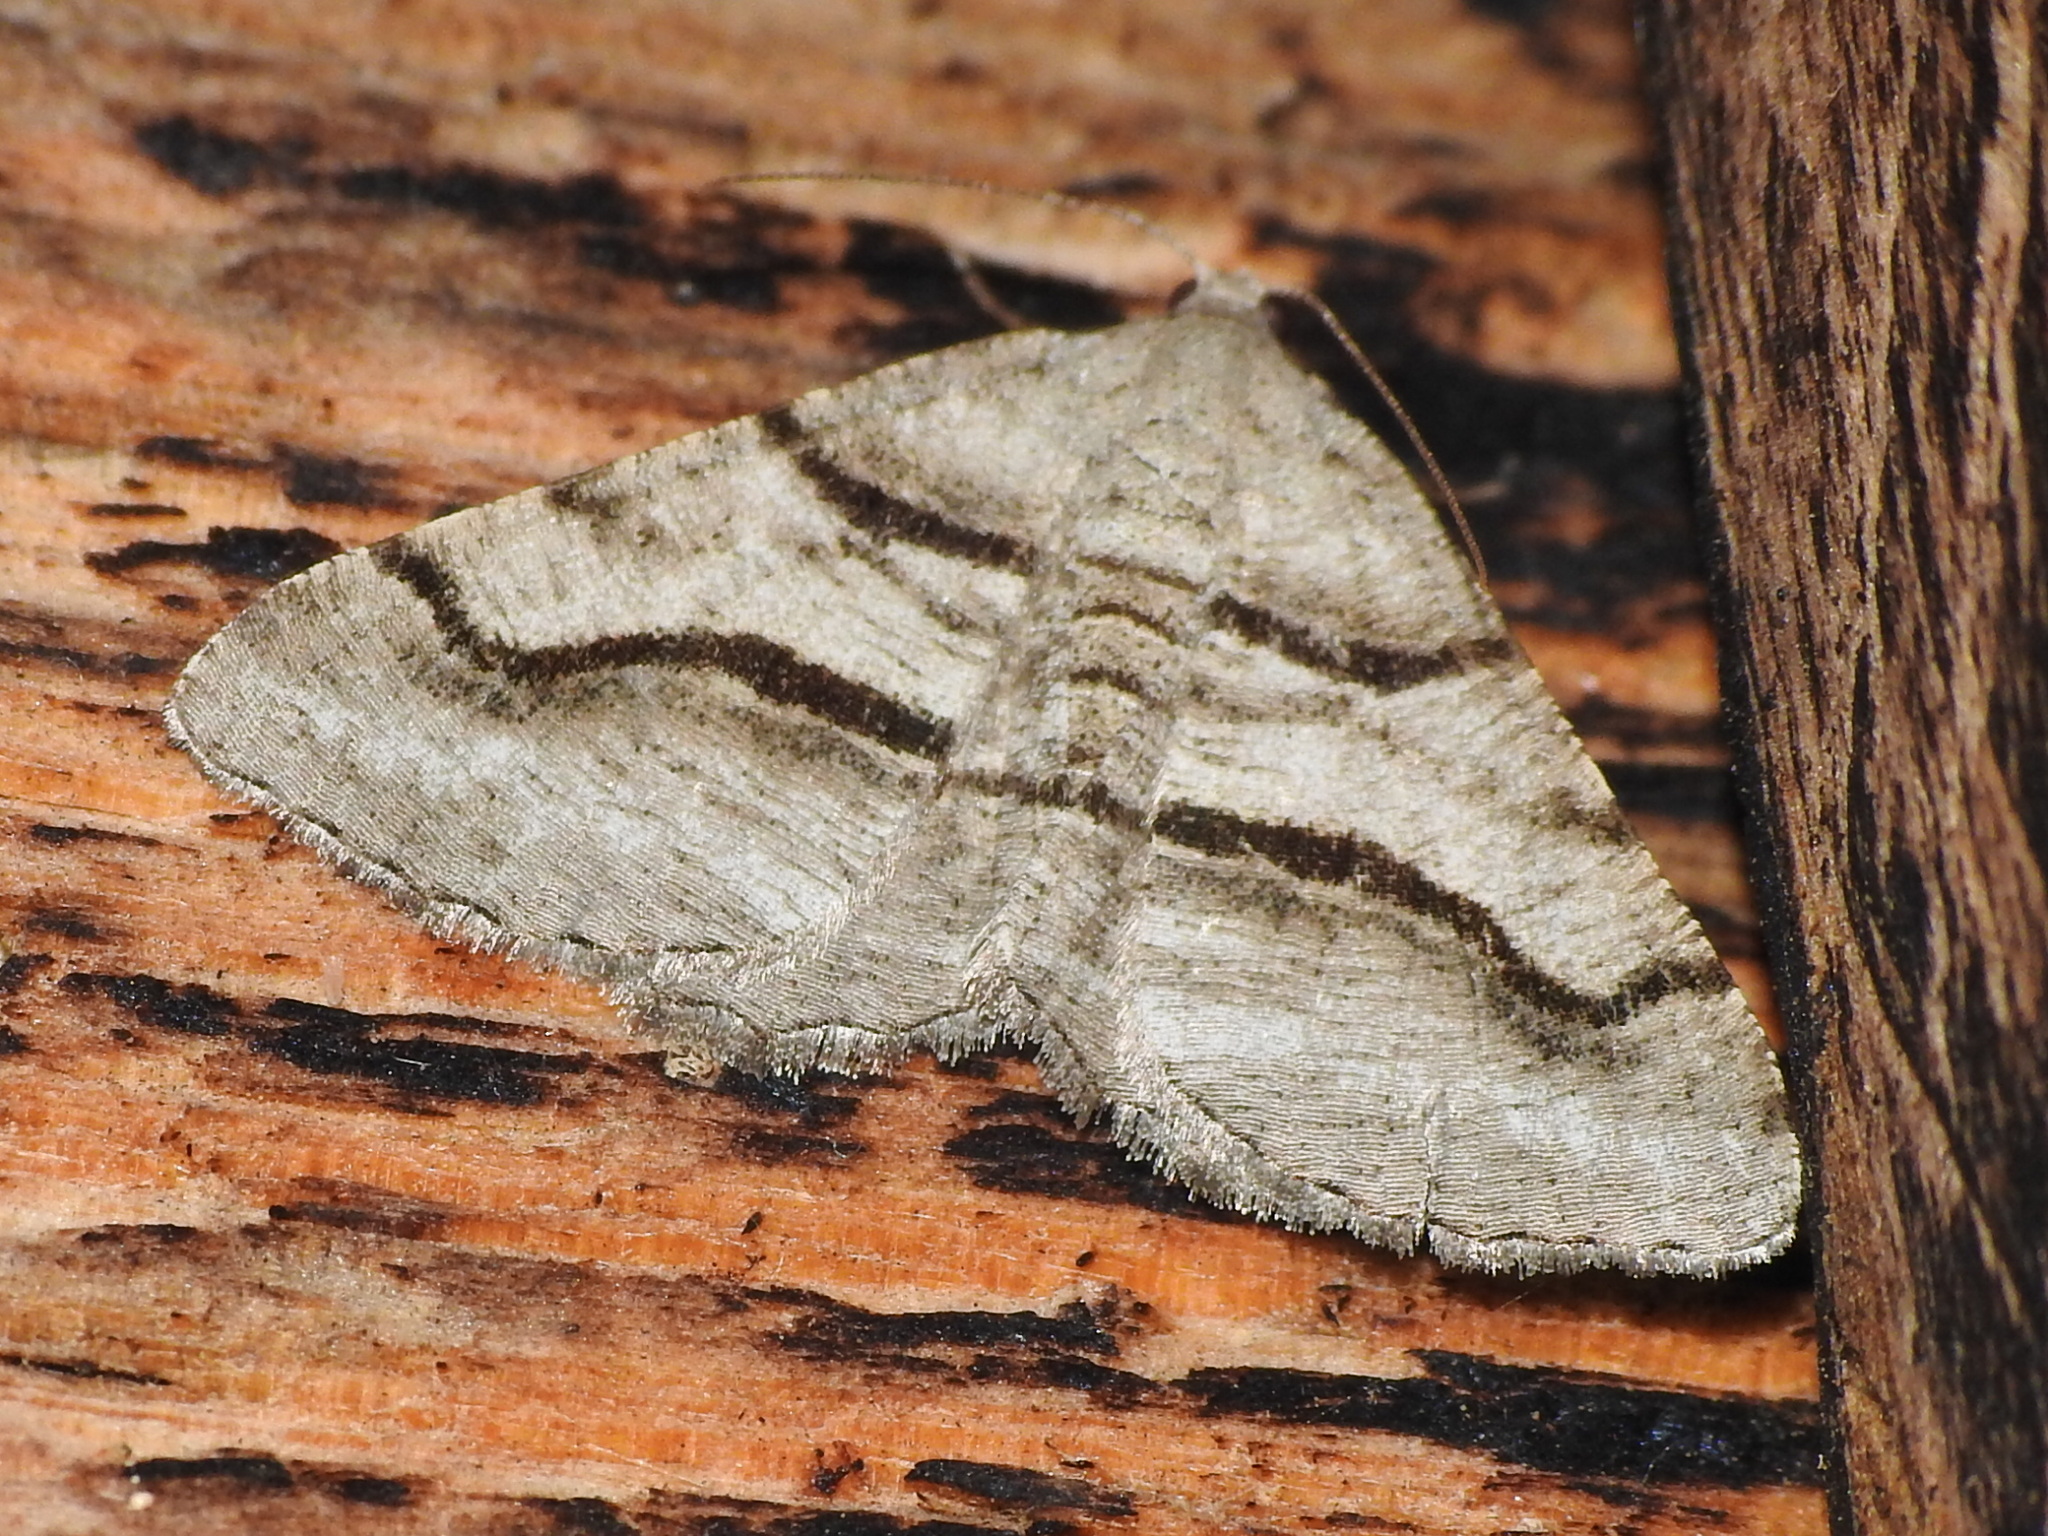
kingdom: Animalia
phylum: Arthropoda
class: Insecta
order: Lepidoptera
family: Geometridae
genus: Digrammia
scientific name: Digrammia continuata
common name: Curve-lined angle
